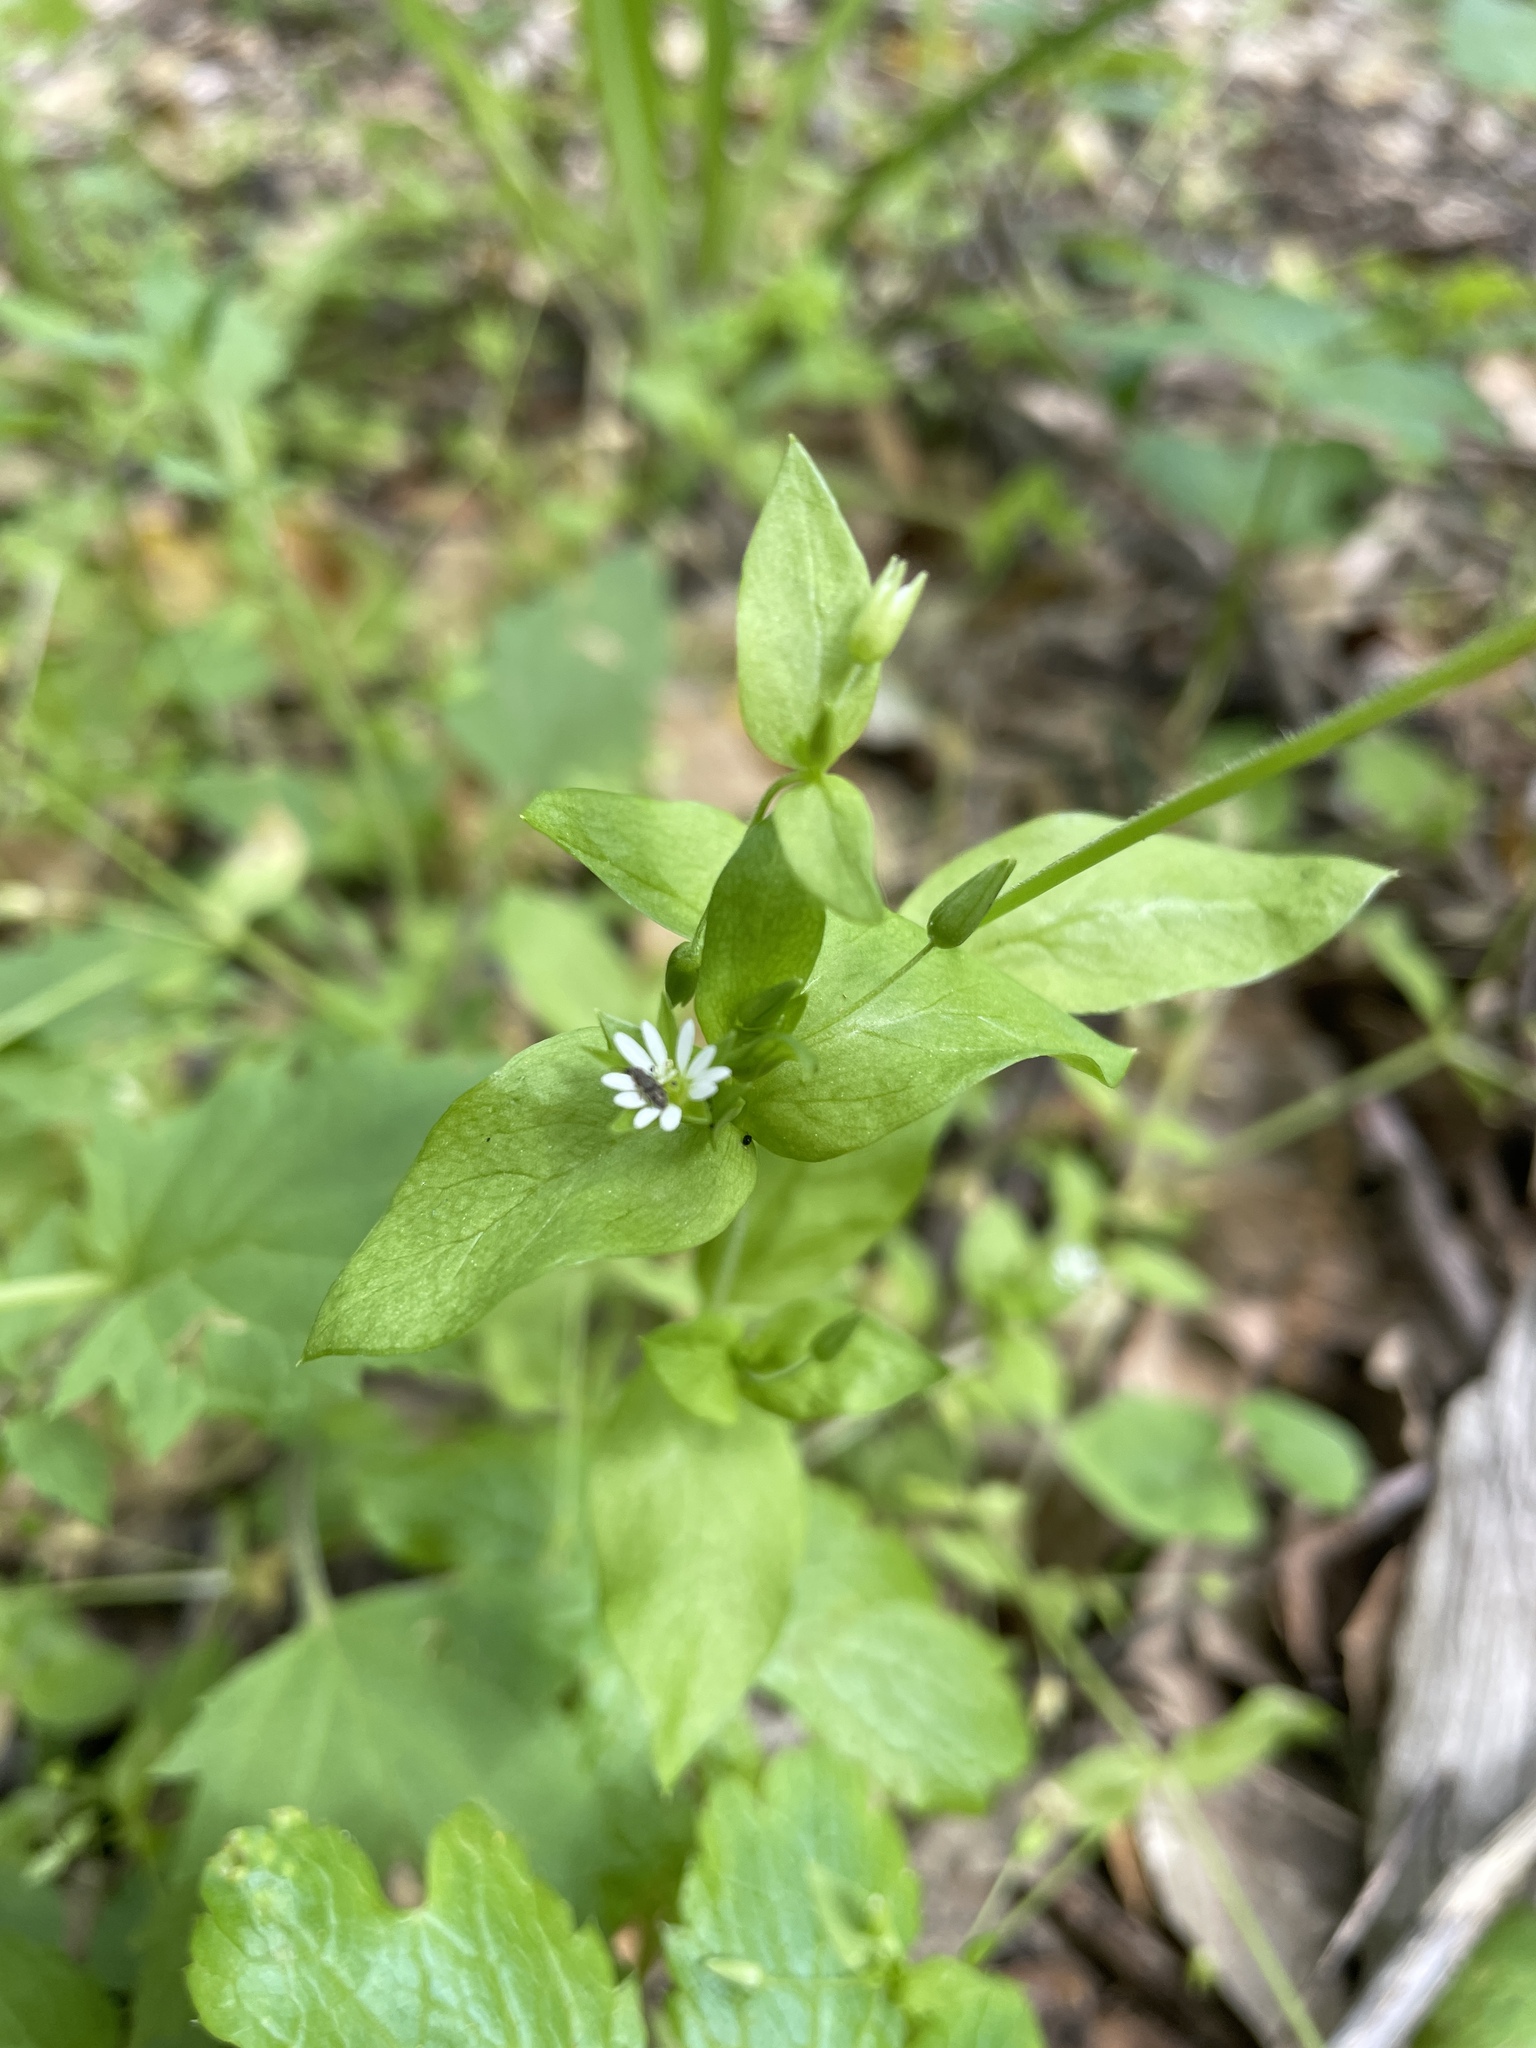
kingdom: Plantae
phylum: Tracheophyta
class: Magnoliopsida
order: Caryophyllales
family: Caryophyllaceae
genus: Stellaria
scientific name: Stellaria media
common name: Common chickweed
